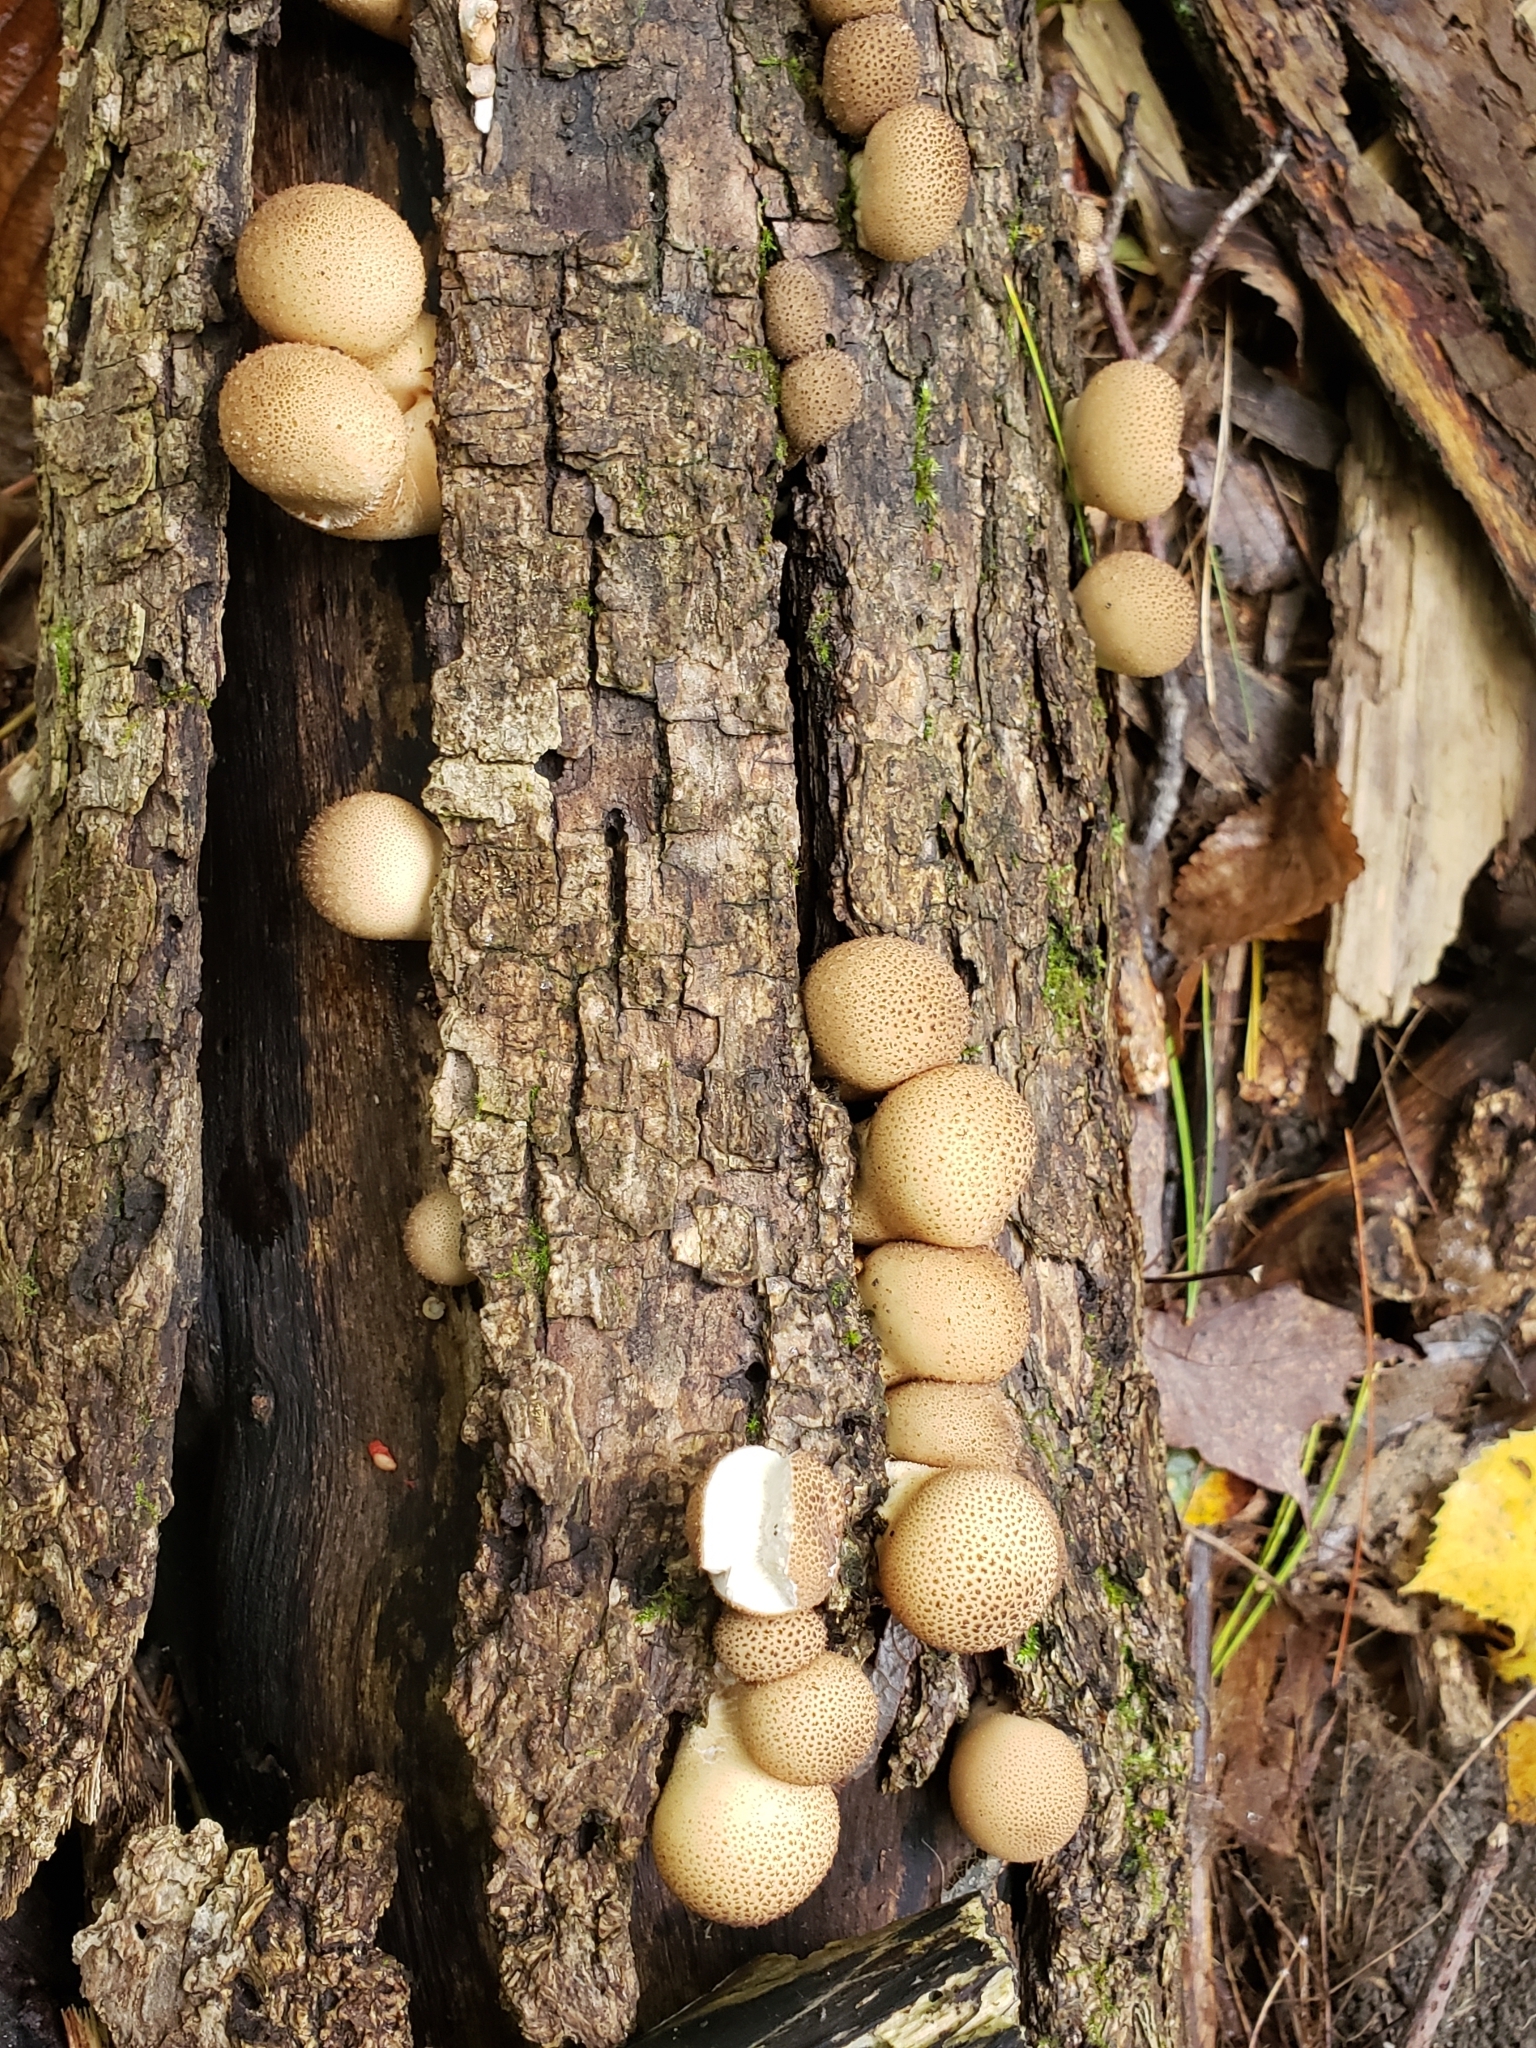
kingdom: Fungi
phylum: Basidiomycota
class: Agaricomycetes
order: Agaricales
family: Lycoperdaceae
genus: Apioperdon
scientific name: Apioperdon pyriforme
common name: Pear-shaped puffball
